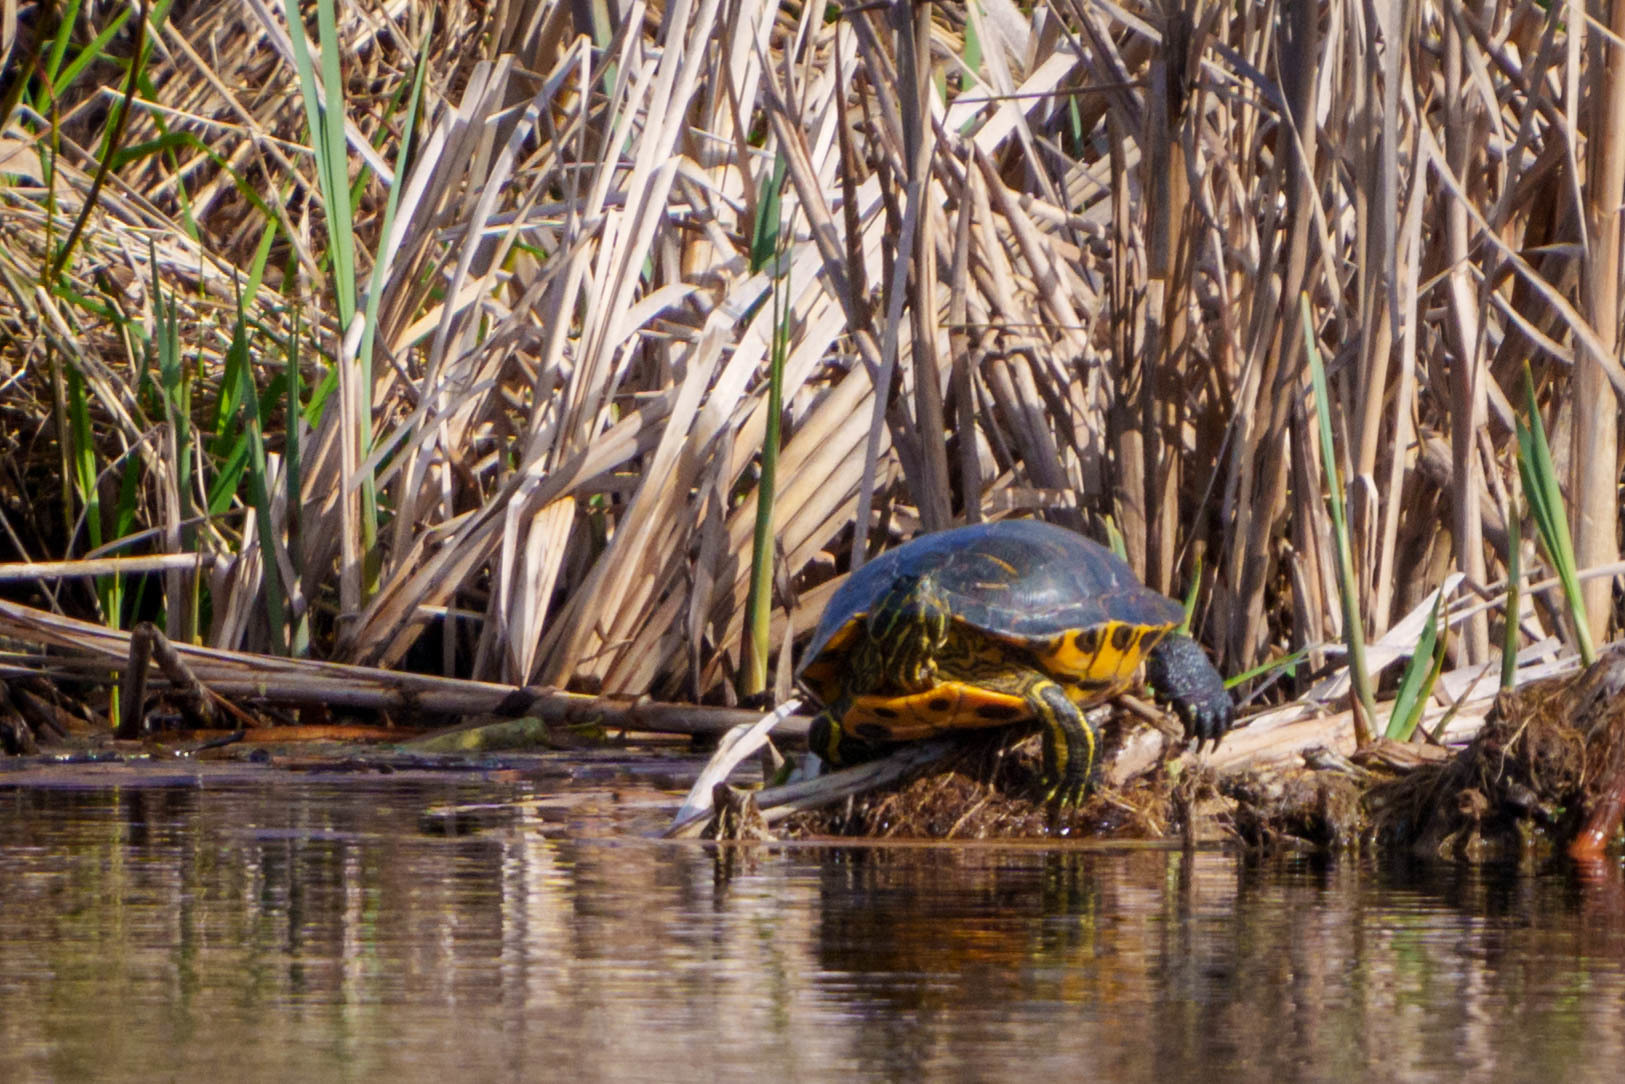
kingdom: Animalia
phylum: Chordata
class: Testudines
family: Emydidae
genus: Trachemys
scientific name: Trachemys scripta
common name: Slider
